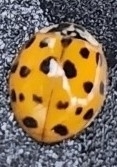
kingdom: Animalia
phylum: Arthropoda
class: Insecta
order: Coleoptera
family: Coccinellidae
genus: Harmonia
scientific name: Harmonia axyridis
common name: Harlequin ladybird
